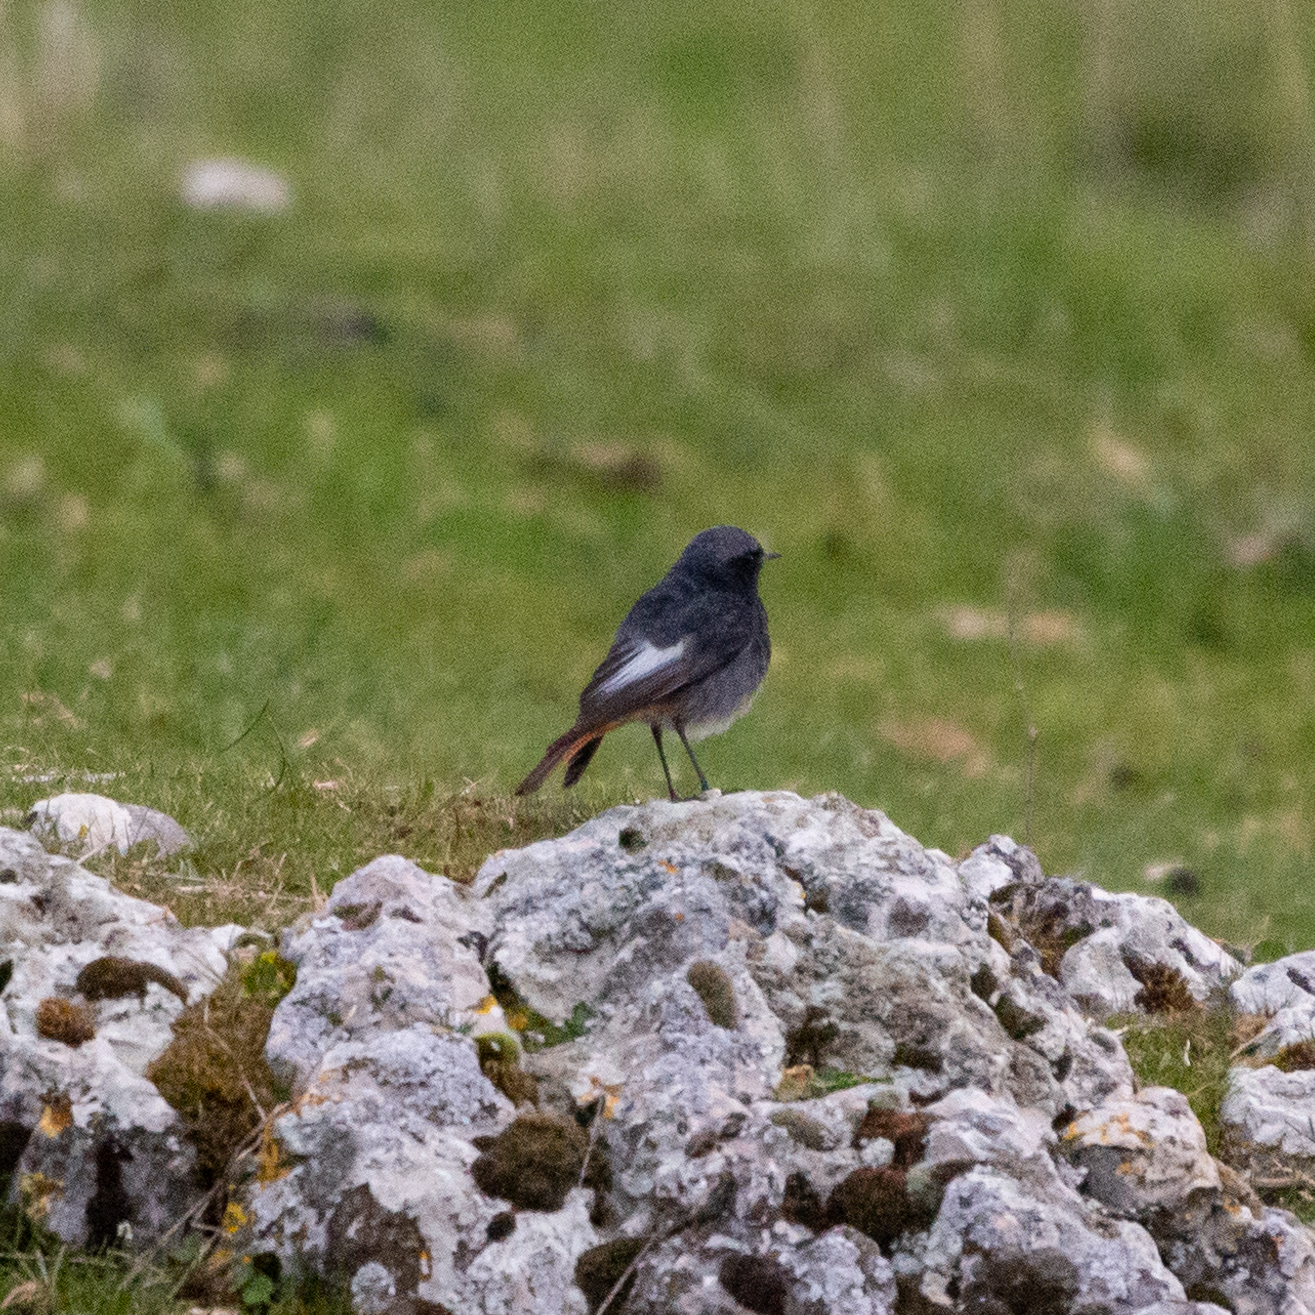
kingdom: Animalia
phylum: Chordata
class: Aves
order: Passeriformes
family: Muscicapidae
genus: Phoenicurus
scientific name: Phoenicurus ochruros
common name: Black redstart
